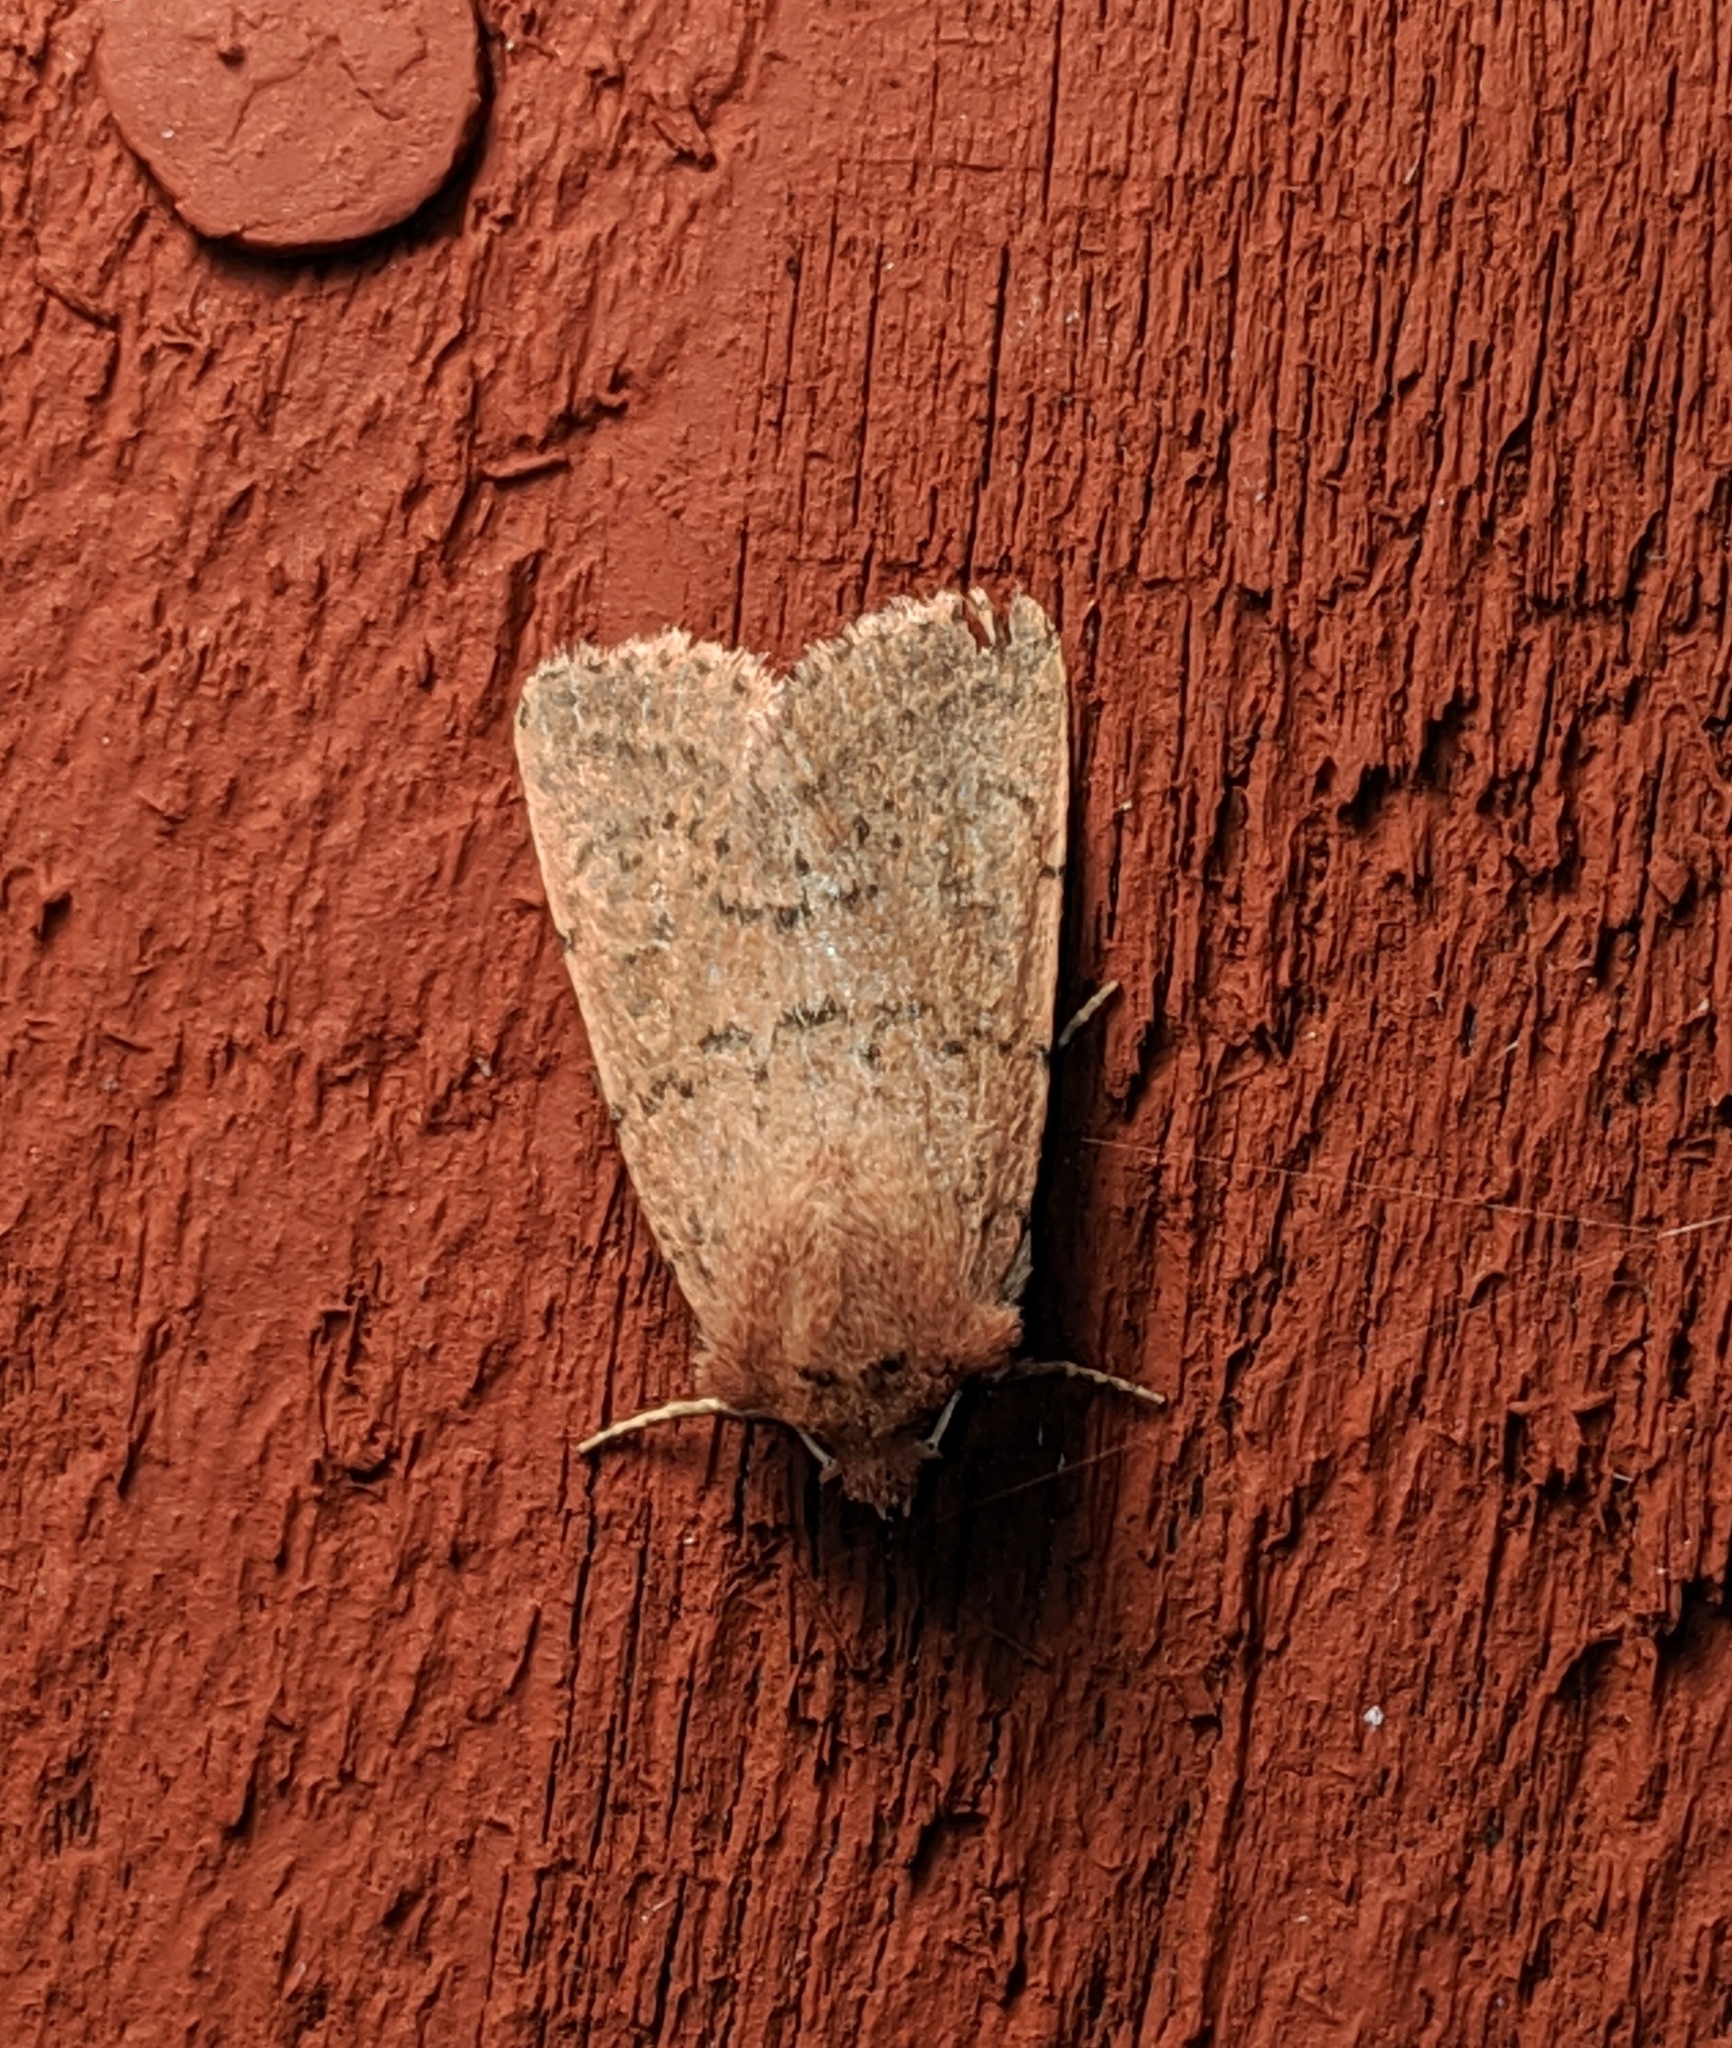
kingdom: Animalia
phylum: Arthropoda
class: Insecta
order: Lepidoptera
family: Noctuidae
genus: Homorthodes
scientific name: Homorthodes fractura
